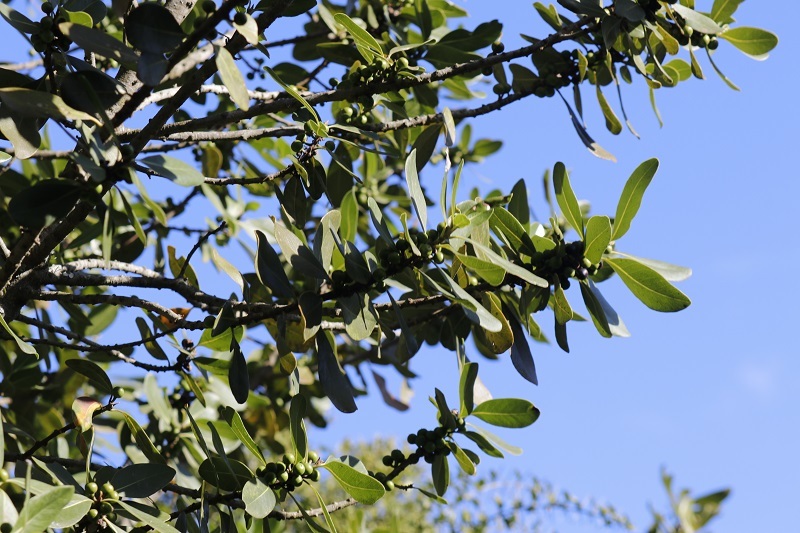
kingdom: Plantae
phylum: Tracheophyta
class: Magnoliopsida
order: Ericales
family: Sapotaceae
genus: Sideroxylon
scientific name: Sideroxylon inerme
